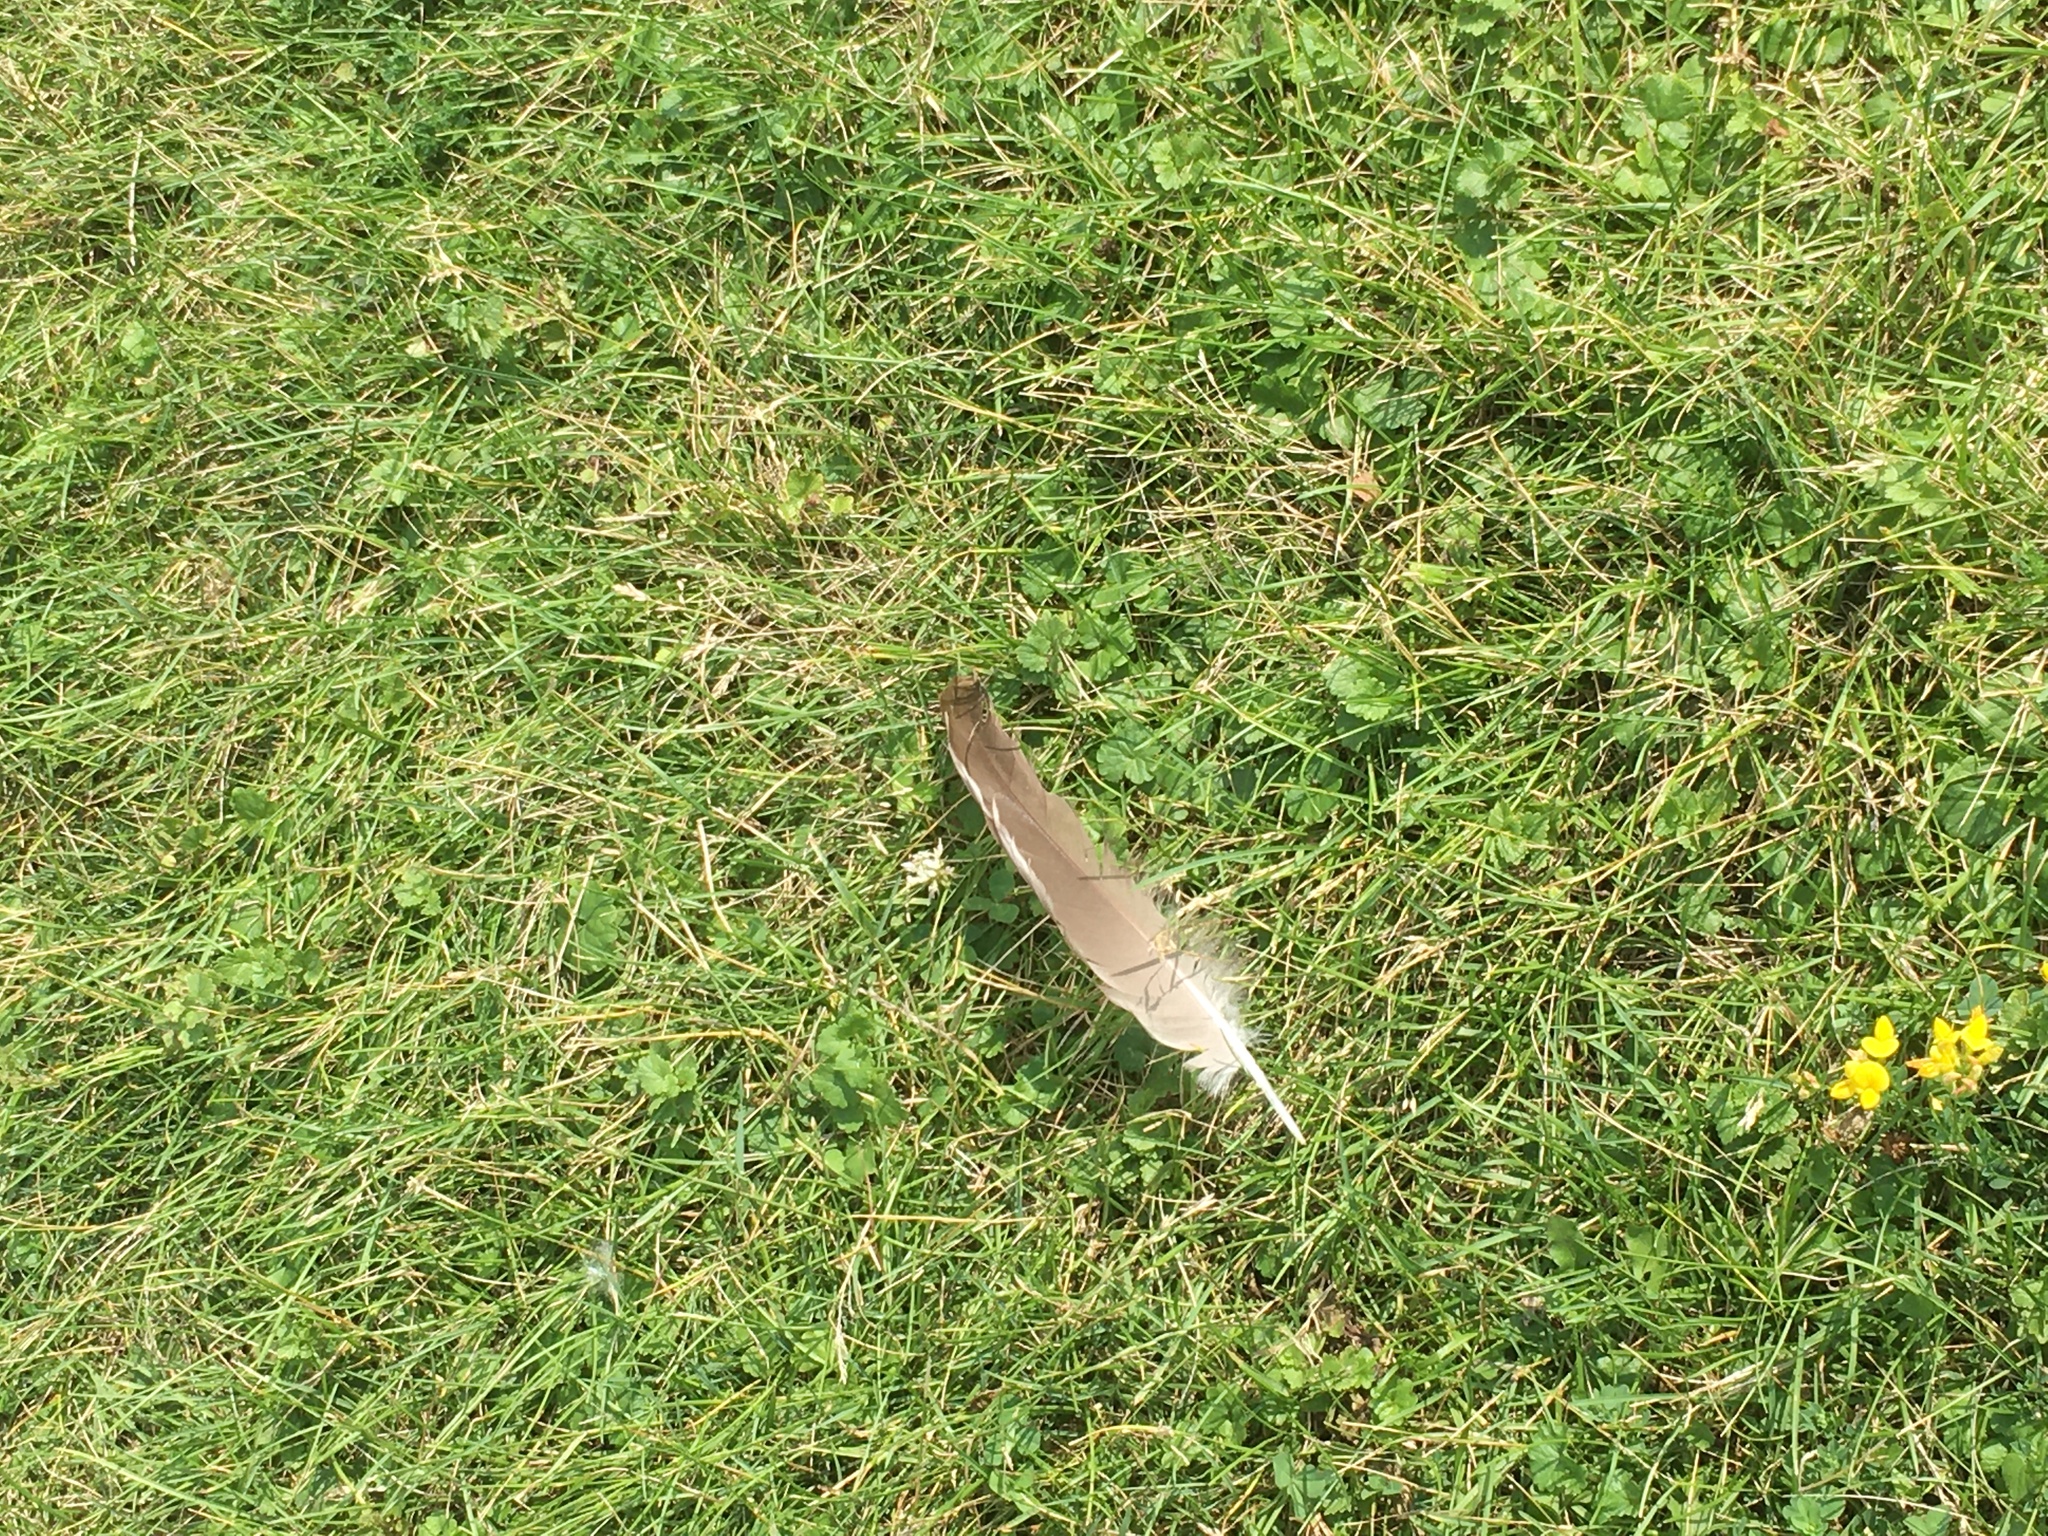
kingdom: Animalia
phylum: Chordata
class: Aves
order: Anseriformes
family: Anatidae
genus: Branta
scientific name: Branta canadensis
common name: Canada goose
